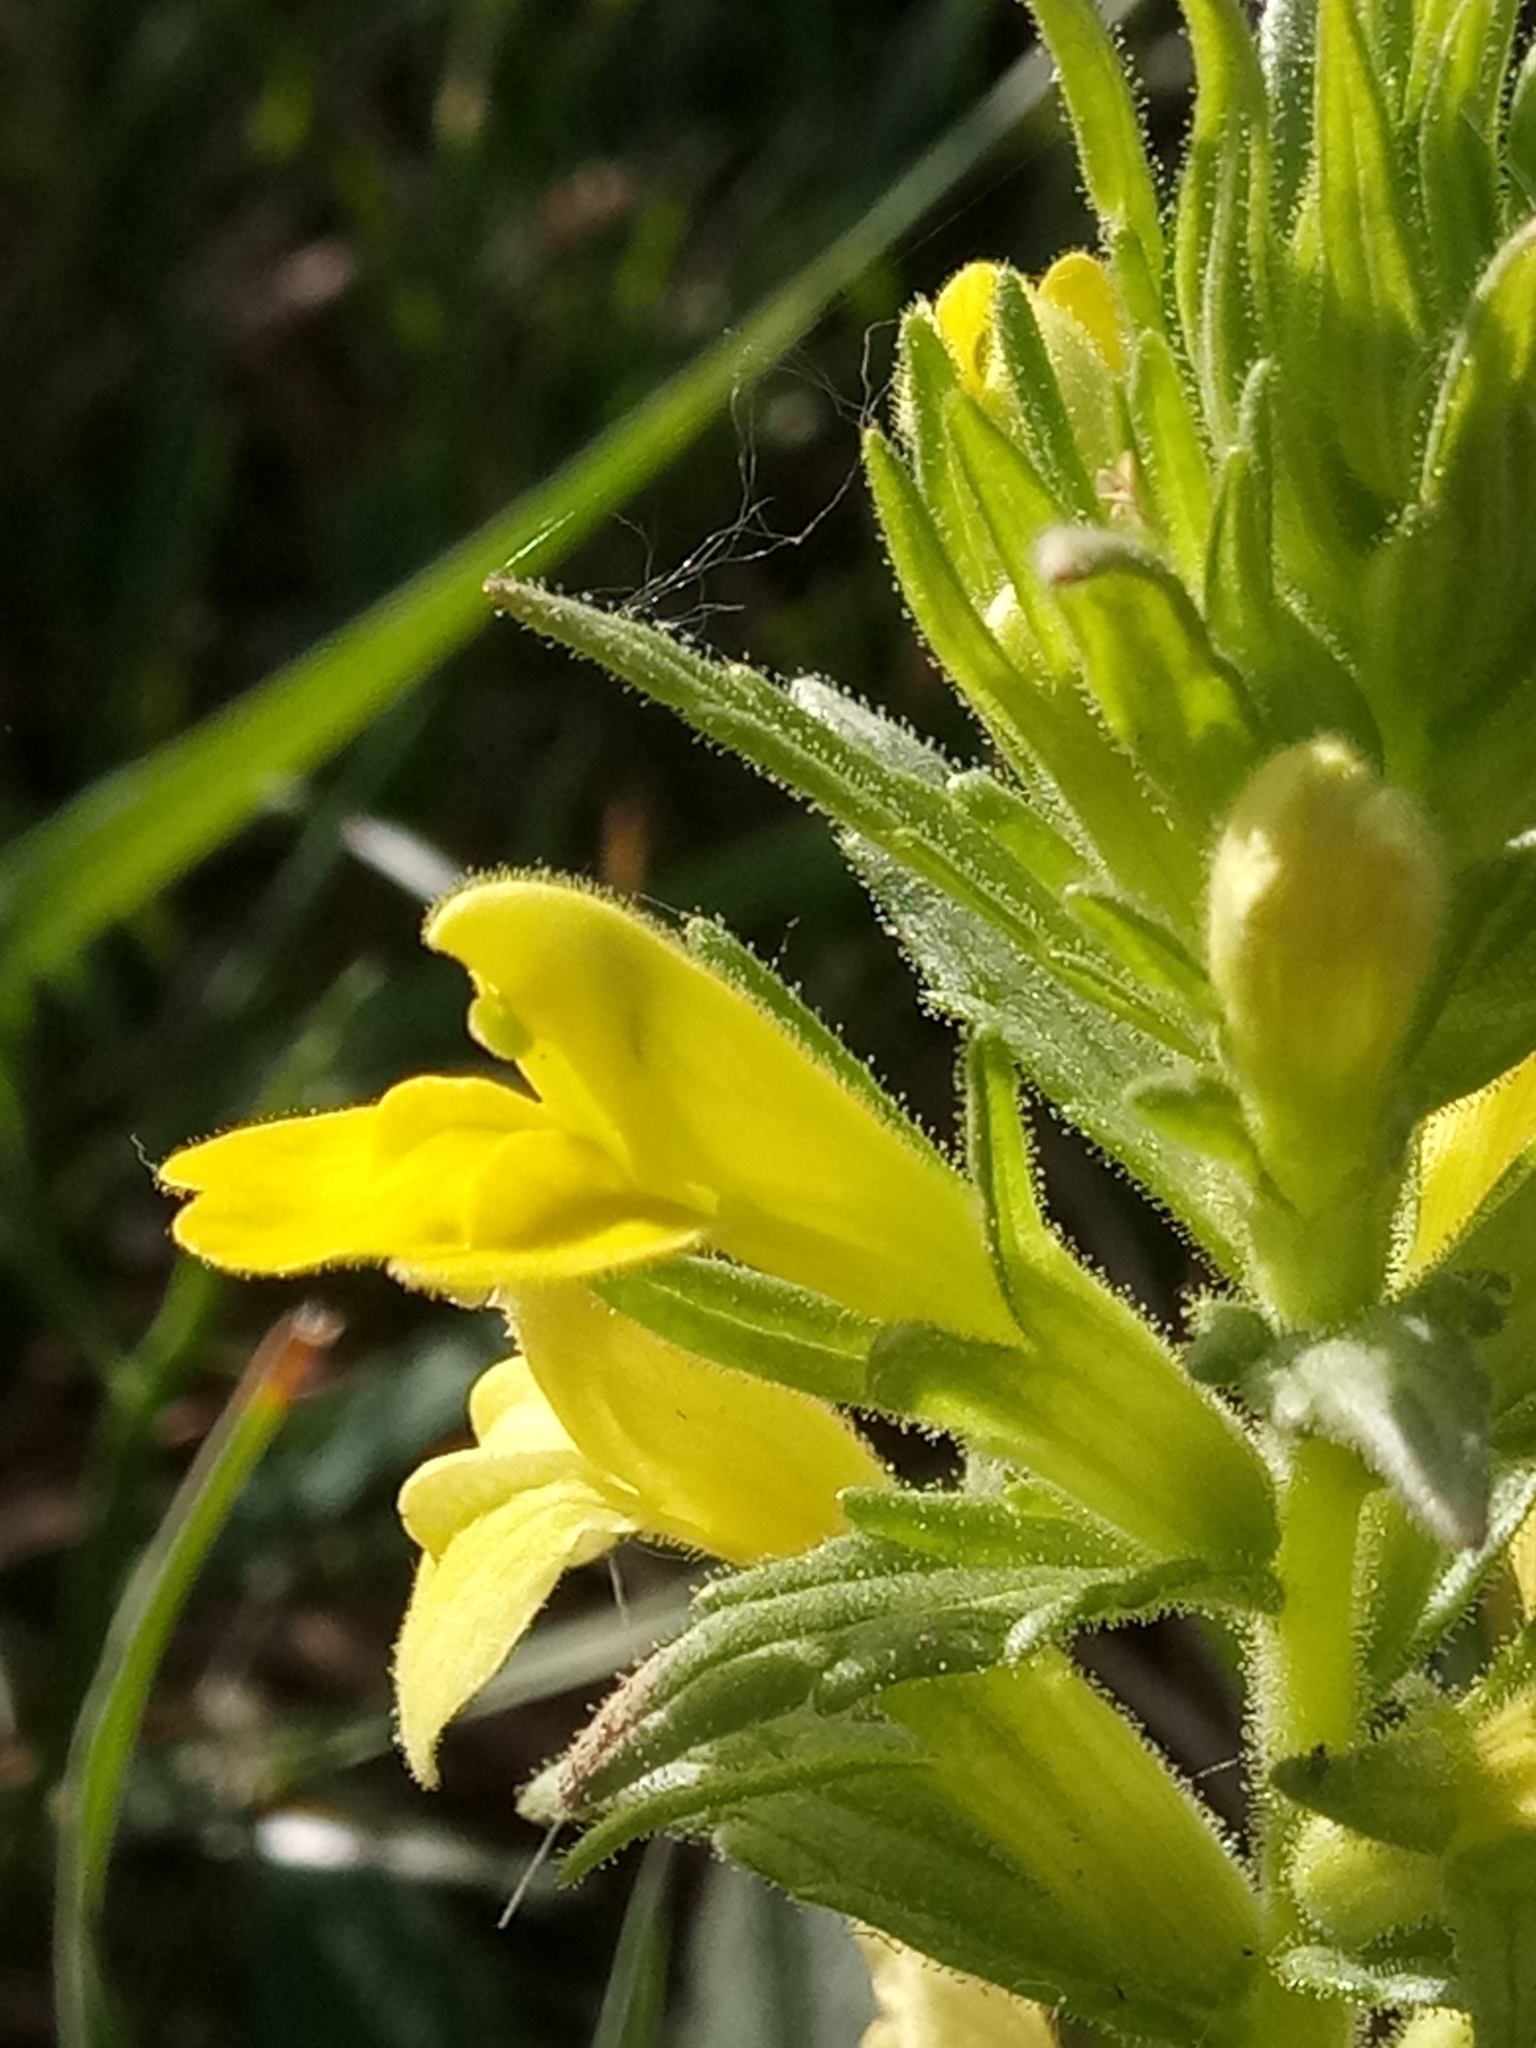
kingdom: Plantae
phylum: Tracheophyta
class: Magnoliopsida
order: Lamiales
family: Orobanchaceae
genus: Bellardia
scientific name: Bellardia viscosa
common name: Sticky parentucellia
